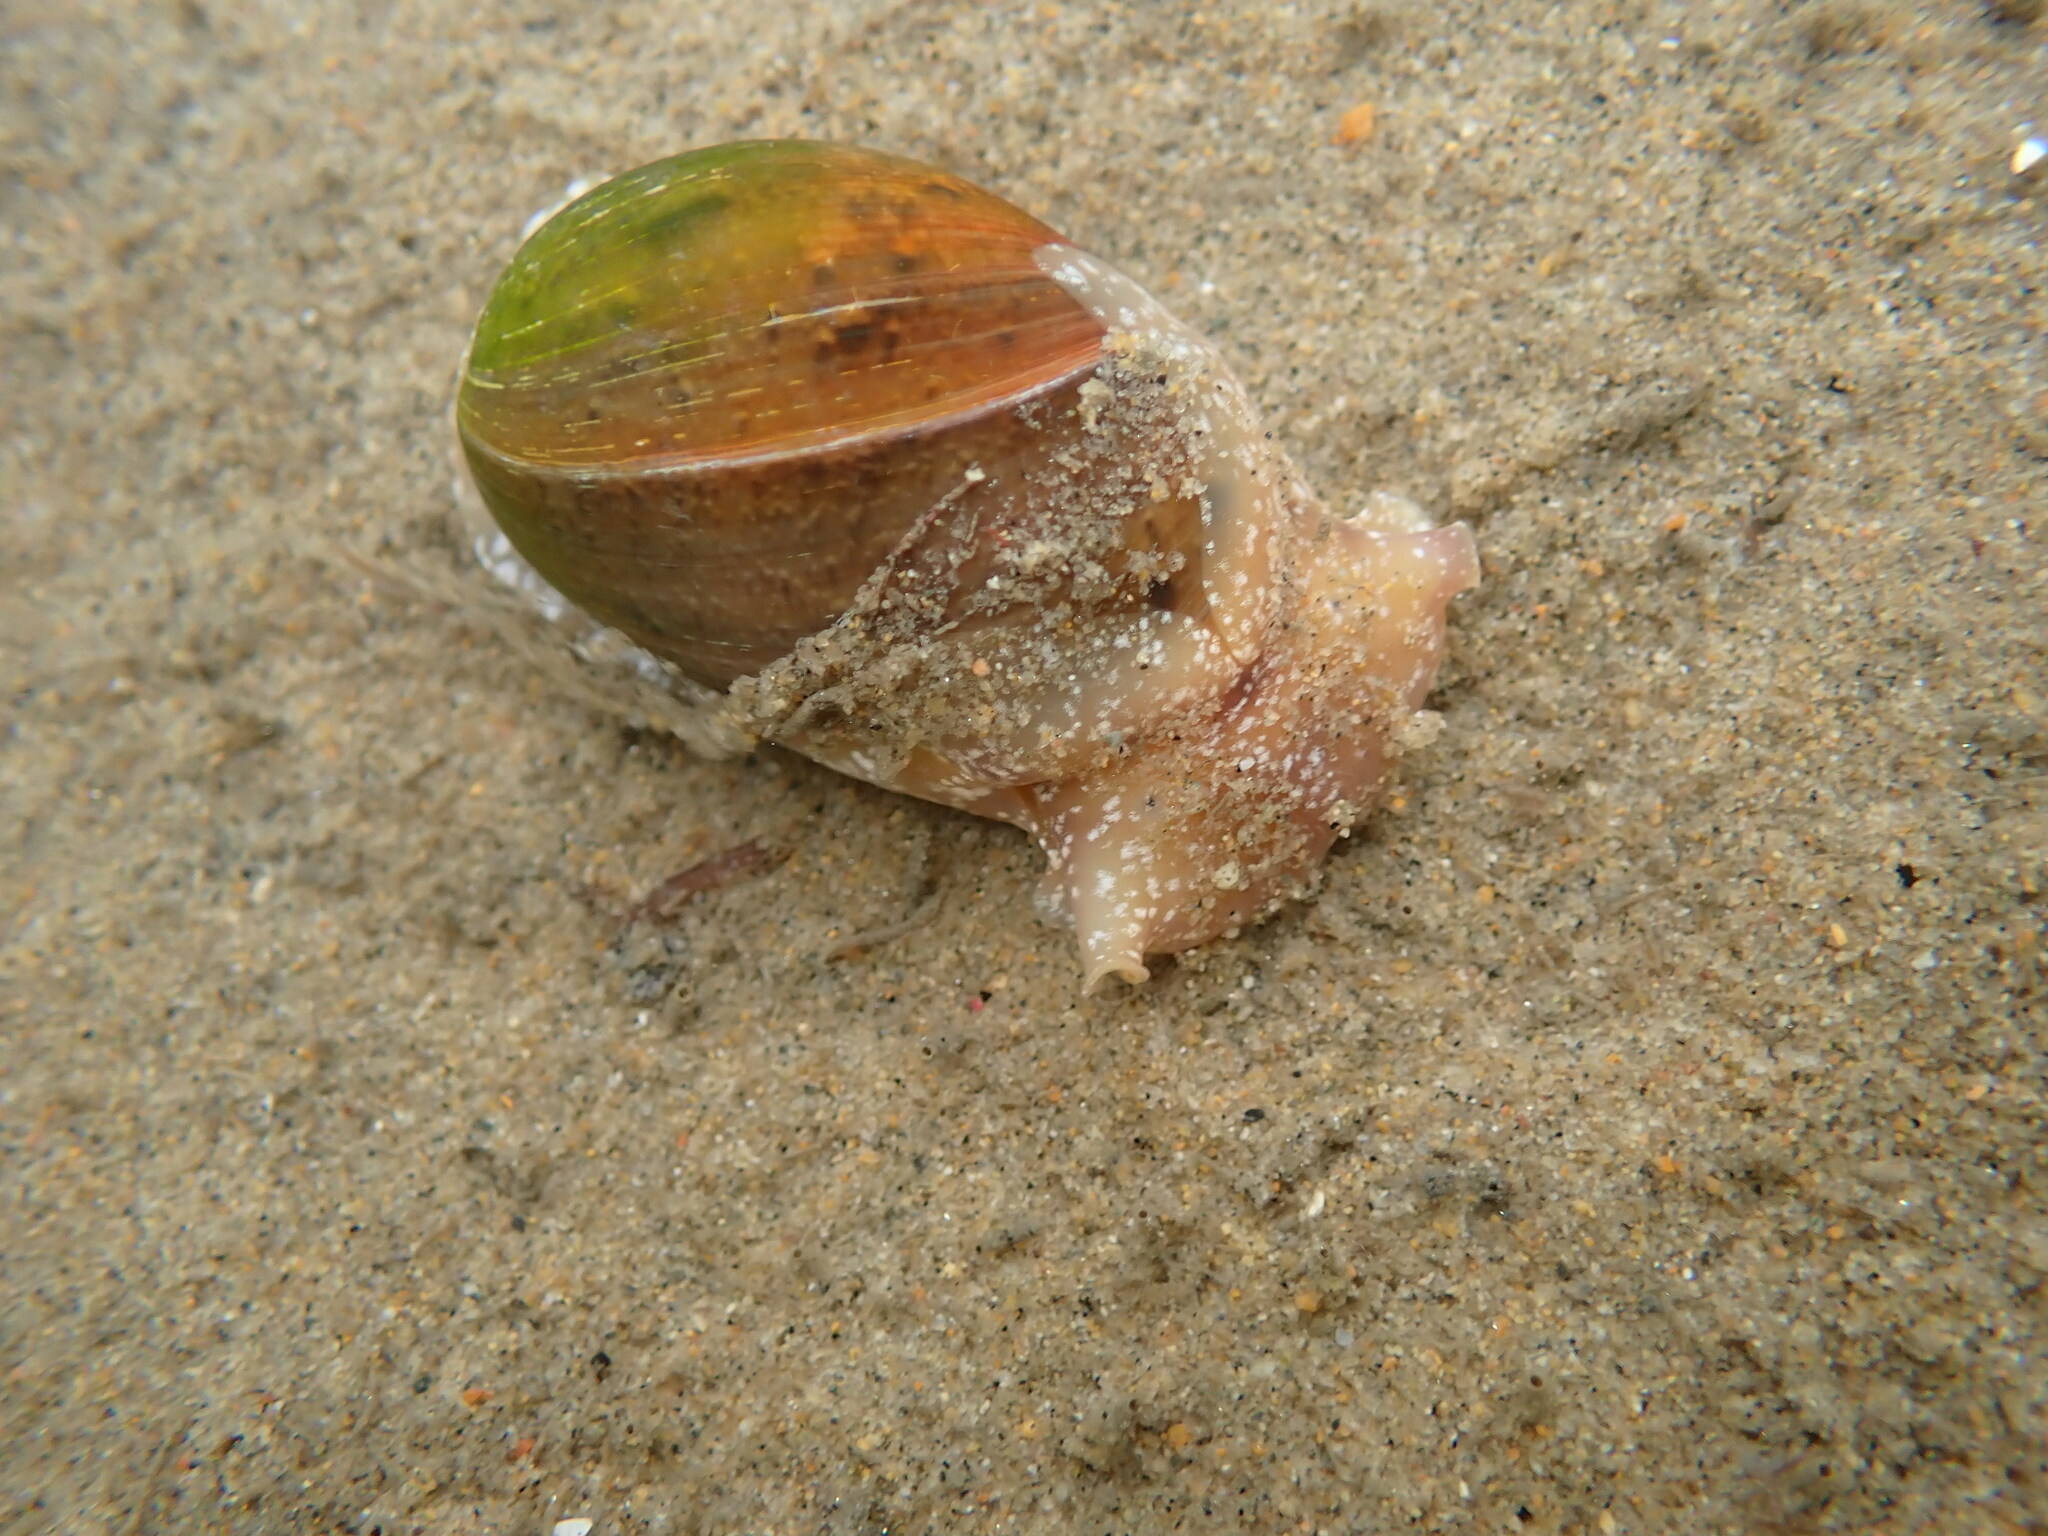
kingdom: Animalia
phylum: Mollusca
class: Gastropoda
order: Cephalaspidea
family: Bullidae
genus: Bulla
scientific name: Bulla gouldiana
